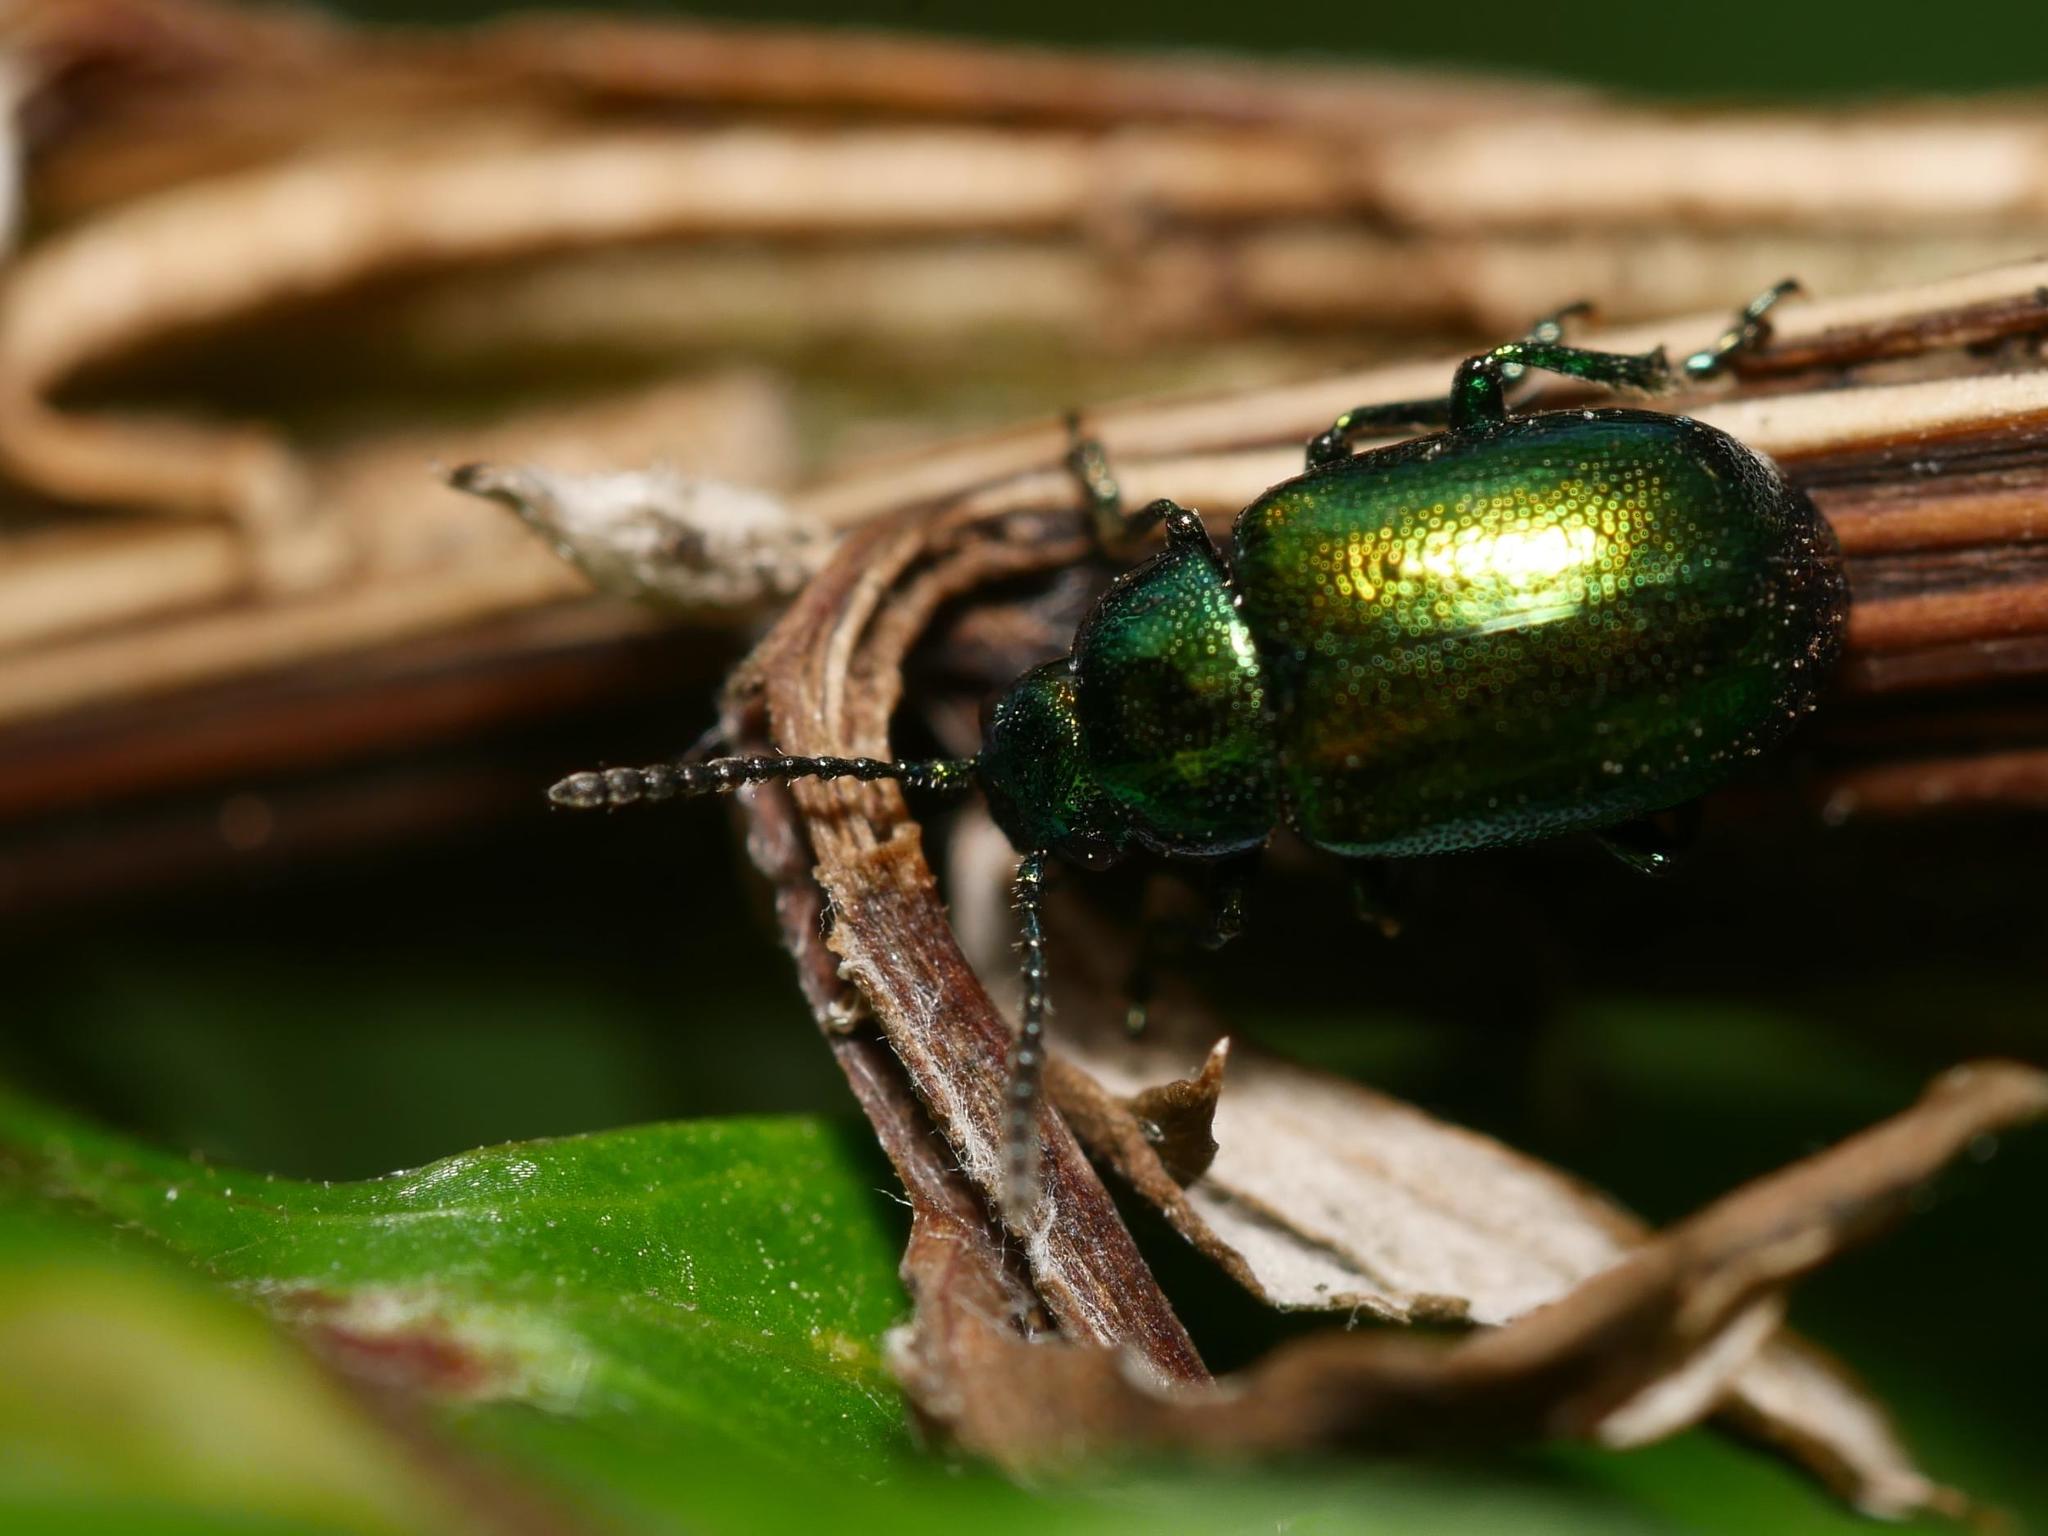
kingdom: Animalia
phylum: Arthropoda
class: Insecta
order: Coleoptera
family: Chrysomelidae
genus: Gastrophysa
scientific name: Gastrophysa viridula
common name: Green dock beetle
